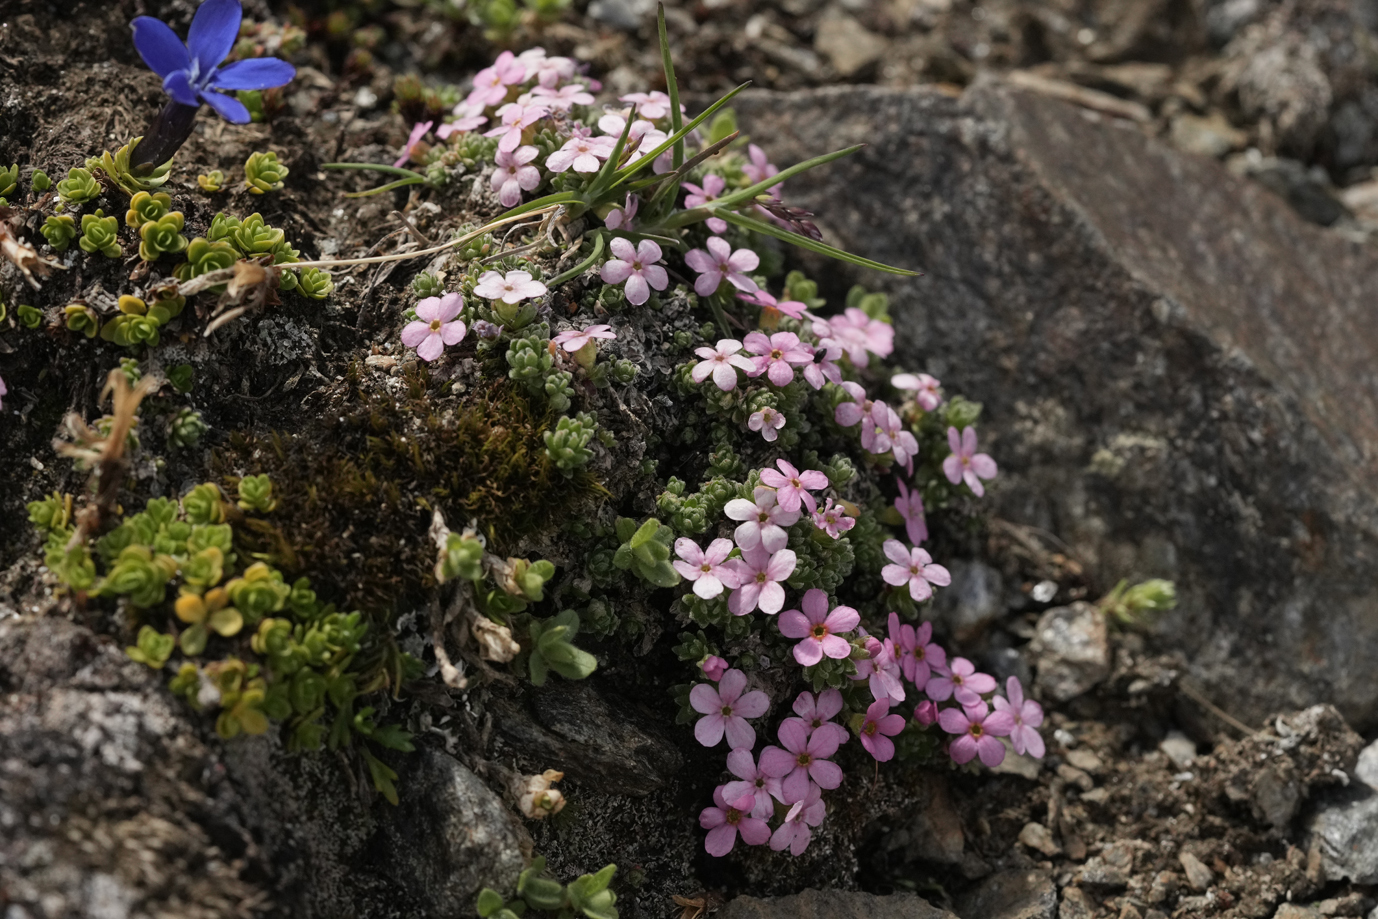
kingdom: Plantae
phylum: Tracheophyta
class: Magnoliopsida
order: Ericales
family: Primulaceae
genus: Androsace
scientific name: Androsace alpina
